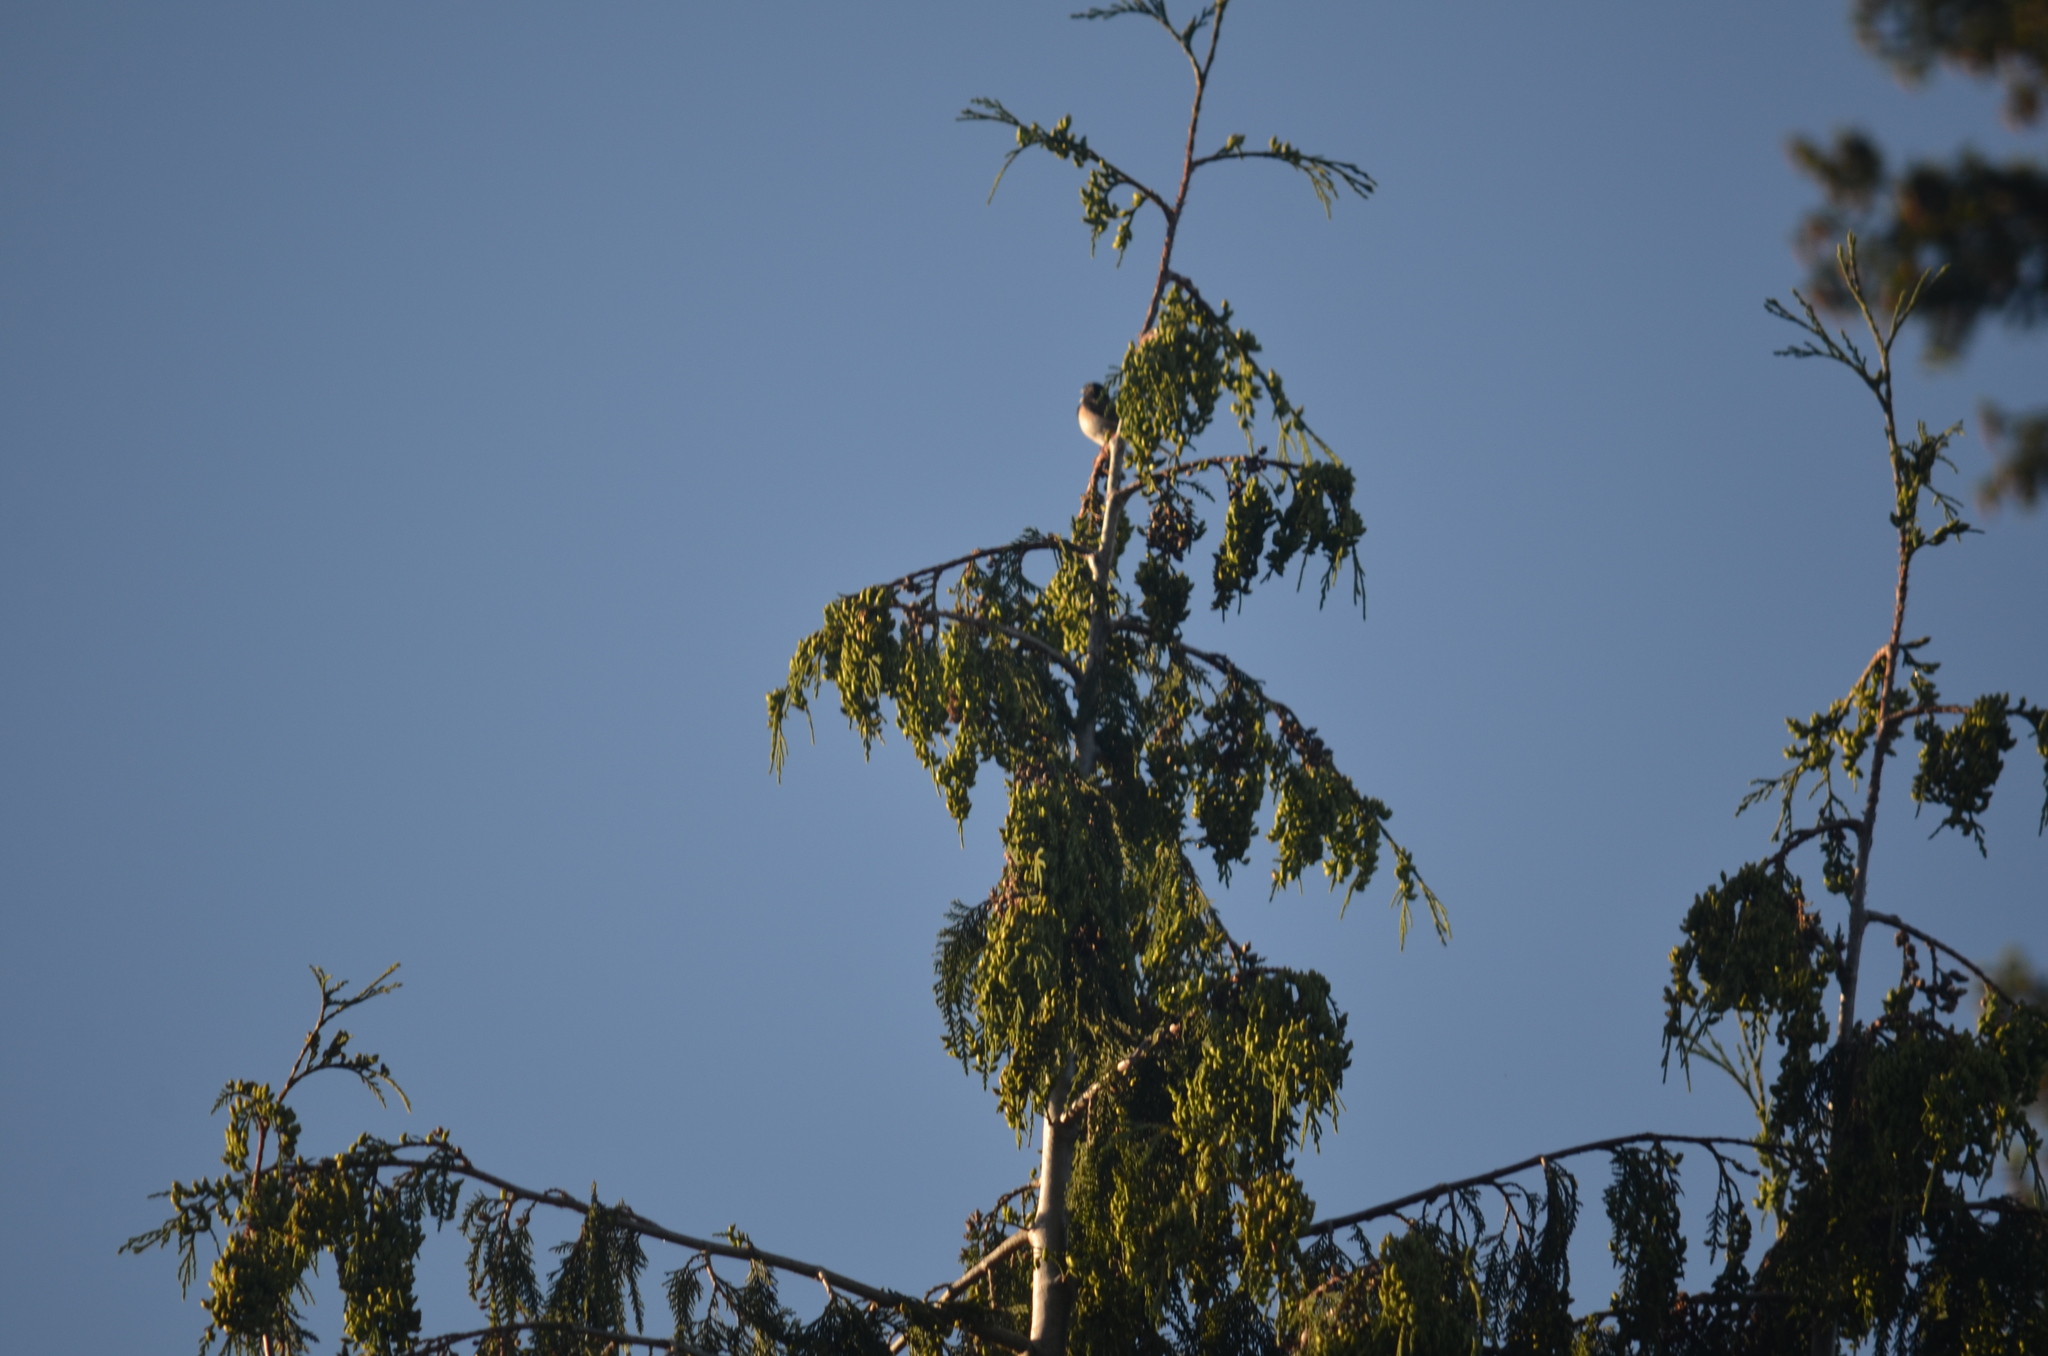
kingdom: Animalia
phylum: Chordata
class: Aves
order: Passeriformes
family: Passerellidae
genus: Junco
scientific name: Junco hyemalis
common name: Dark-eyed junco
